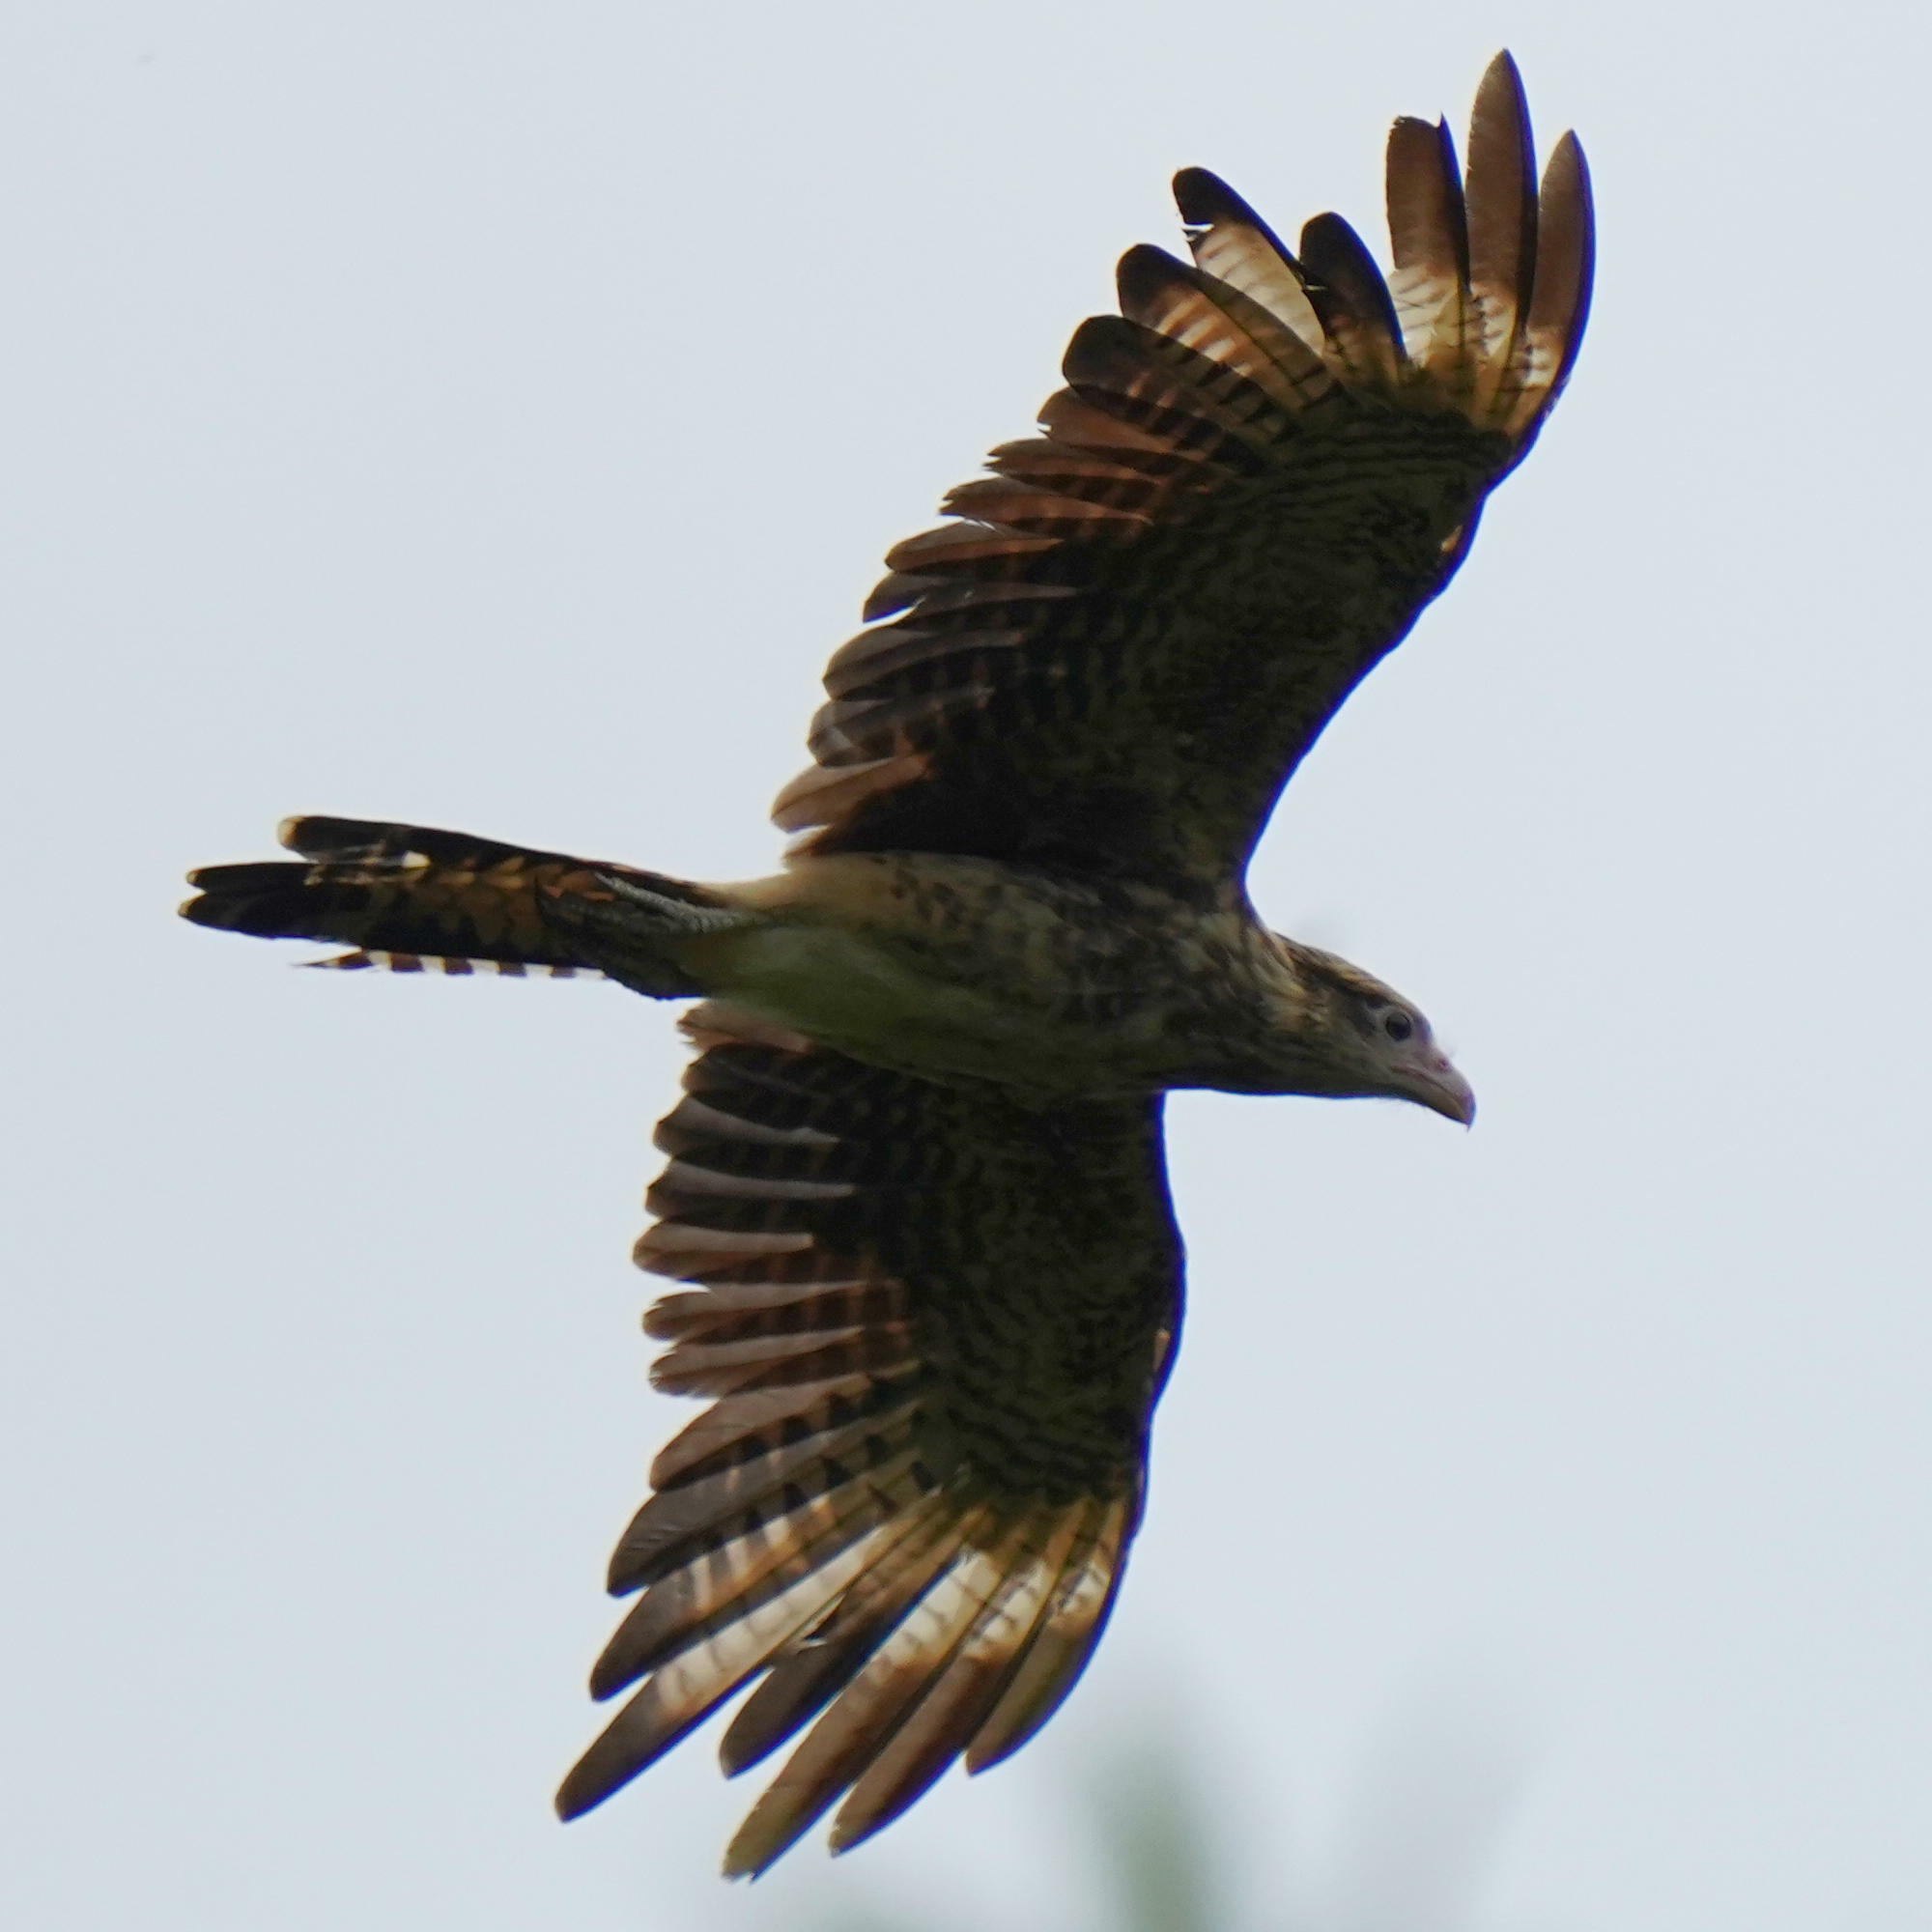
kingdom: Animalia
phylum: Chordata
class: Aves
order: Falconiformes
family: Falconidae
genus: Daptrius
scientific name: Daptrius
